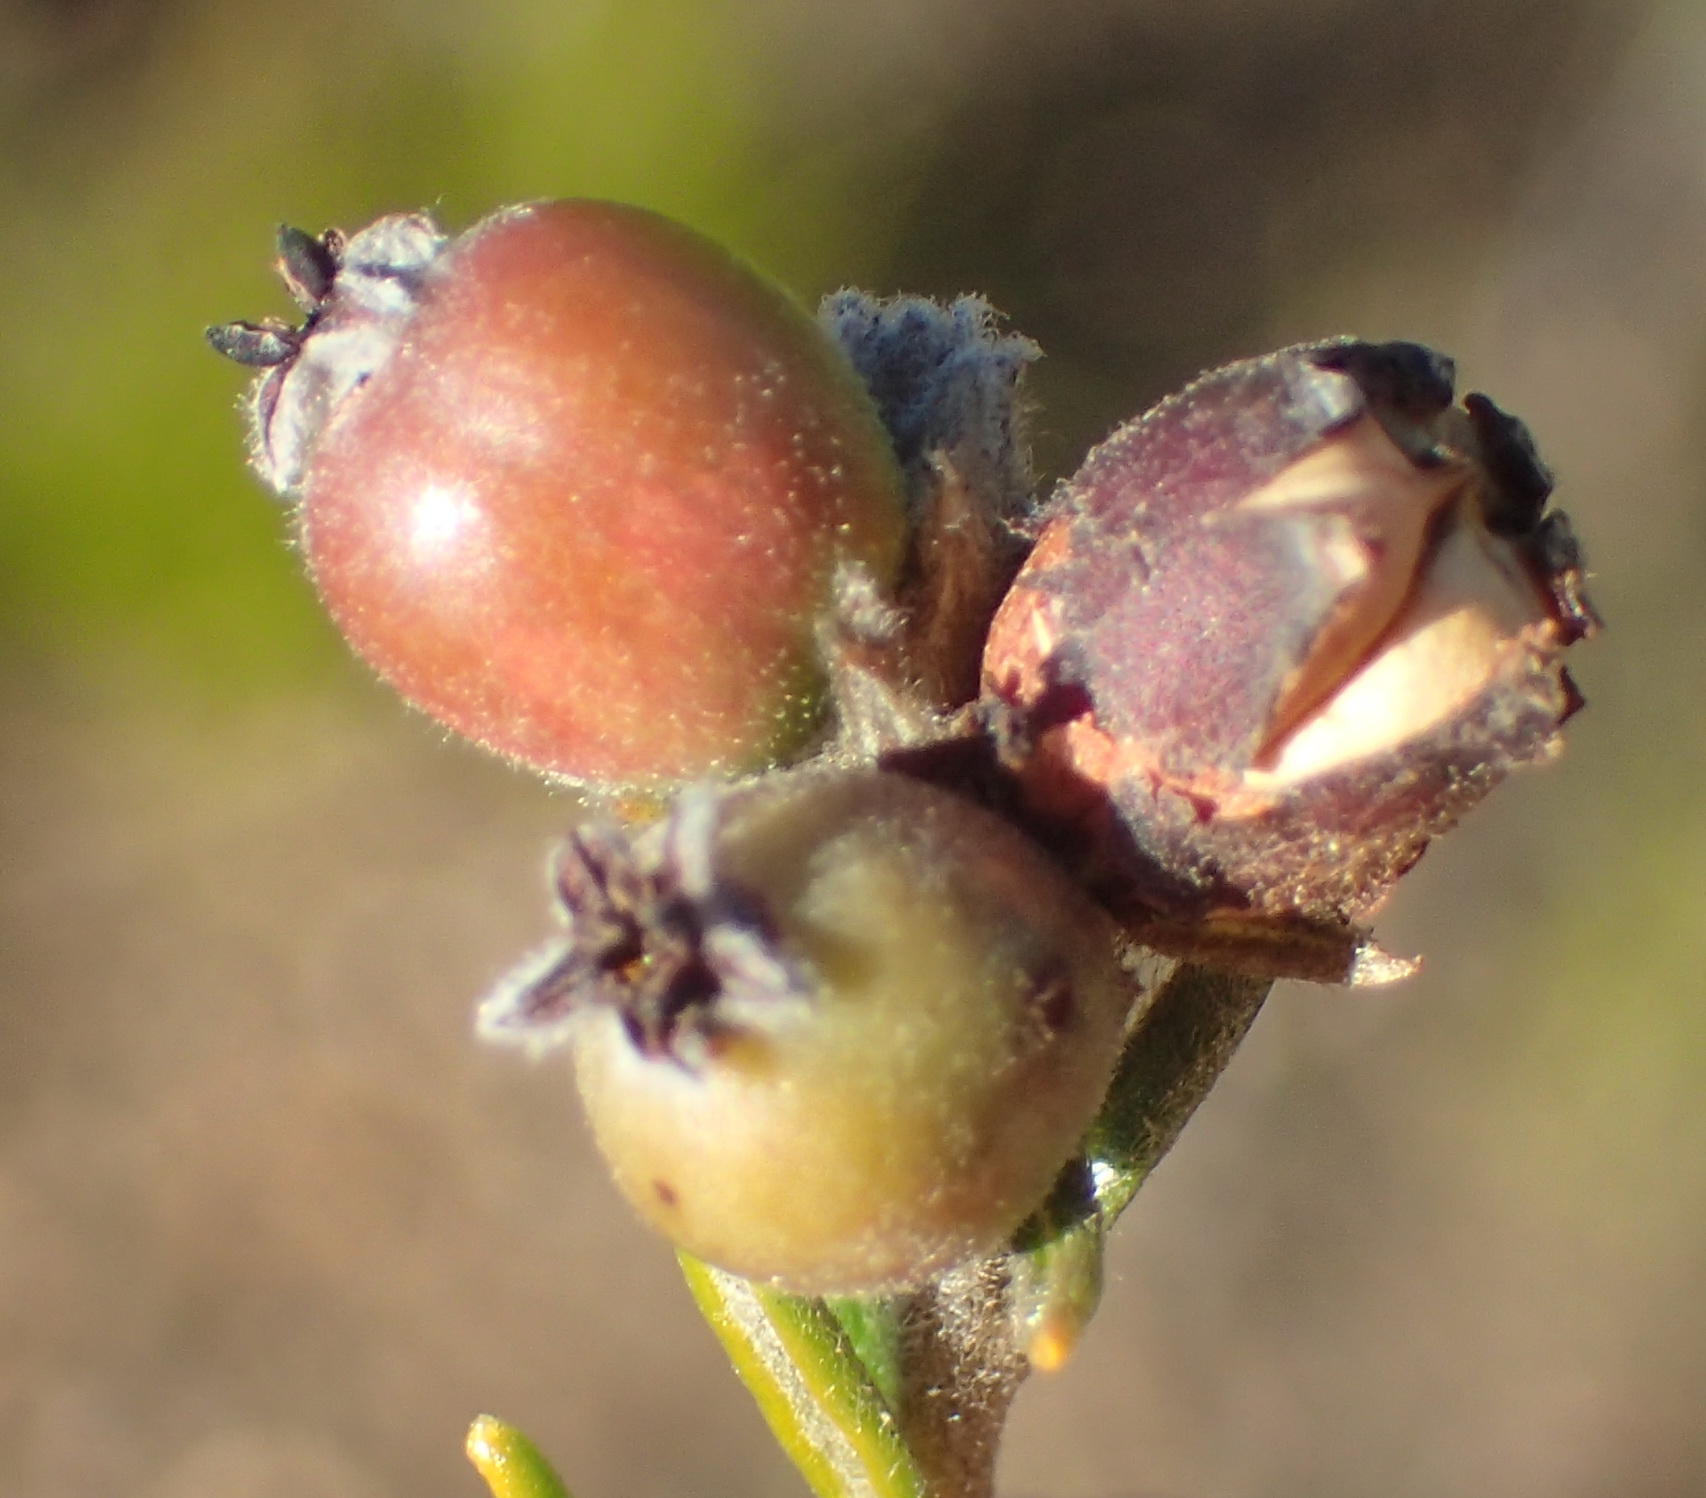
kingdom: Plantae
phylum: Tracheophyta
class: Magnoliopsida
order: Rosales
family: Rhamnaceae
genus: Phylica
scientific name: Phylica imberbis
